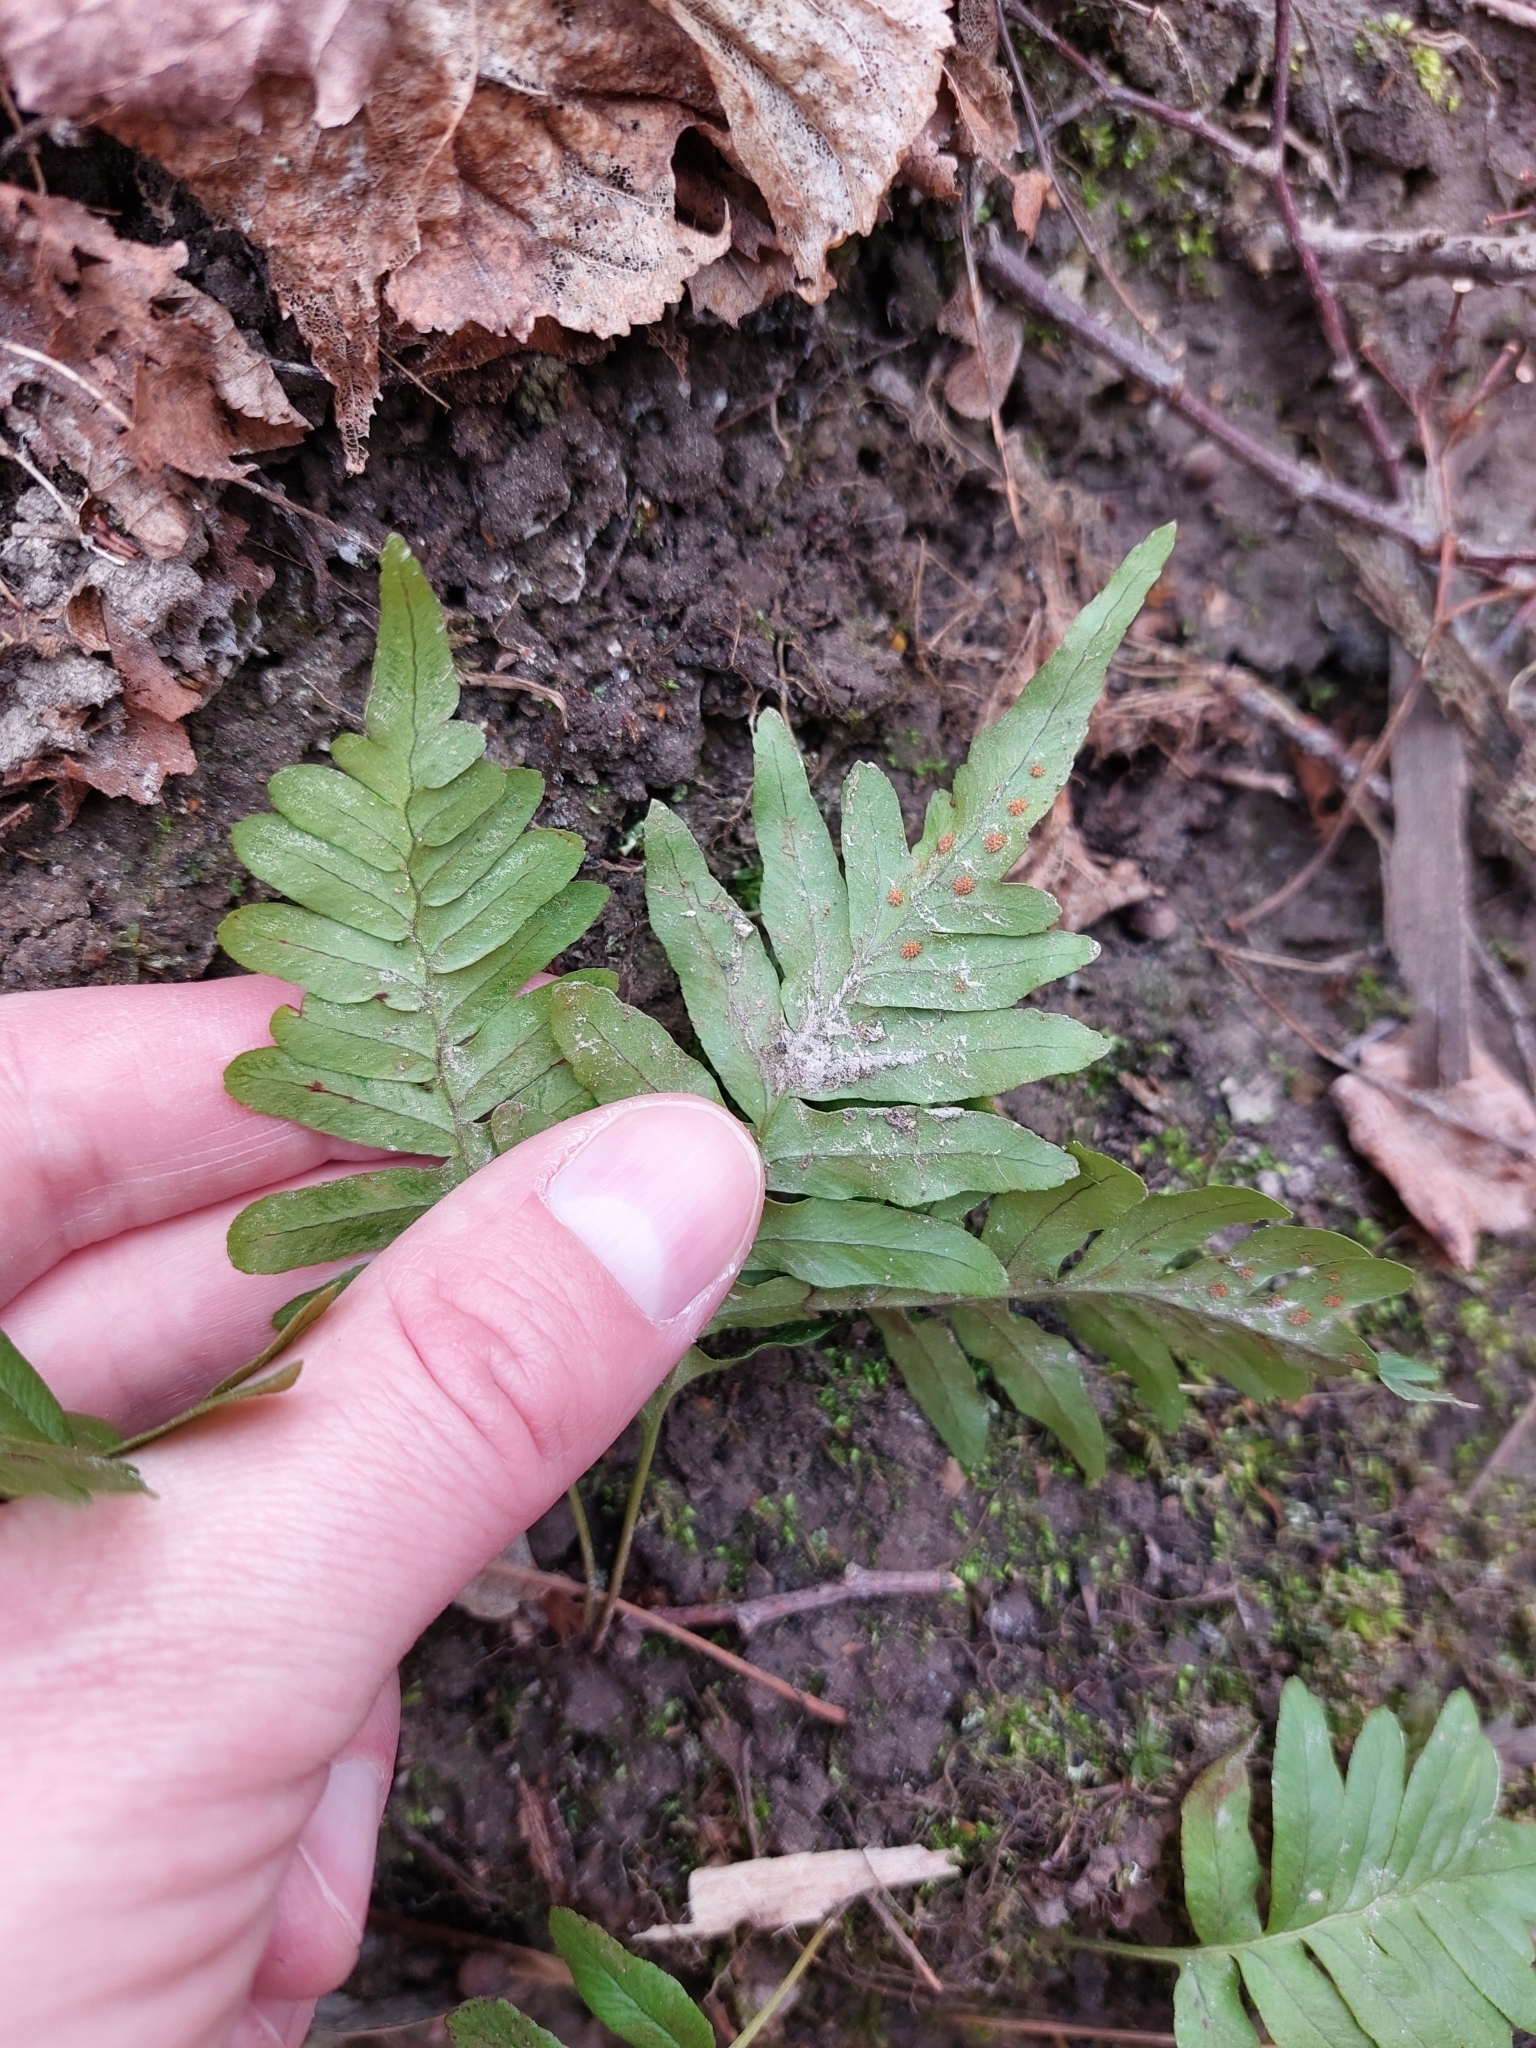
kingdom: Plantae
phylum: Tracheophyta
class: Polypodiopsida
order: Polypodiales
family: Polypodiaceae
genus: Polypodium
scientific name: Polypodium vulgare
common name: Common polypody
